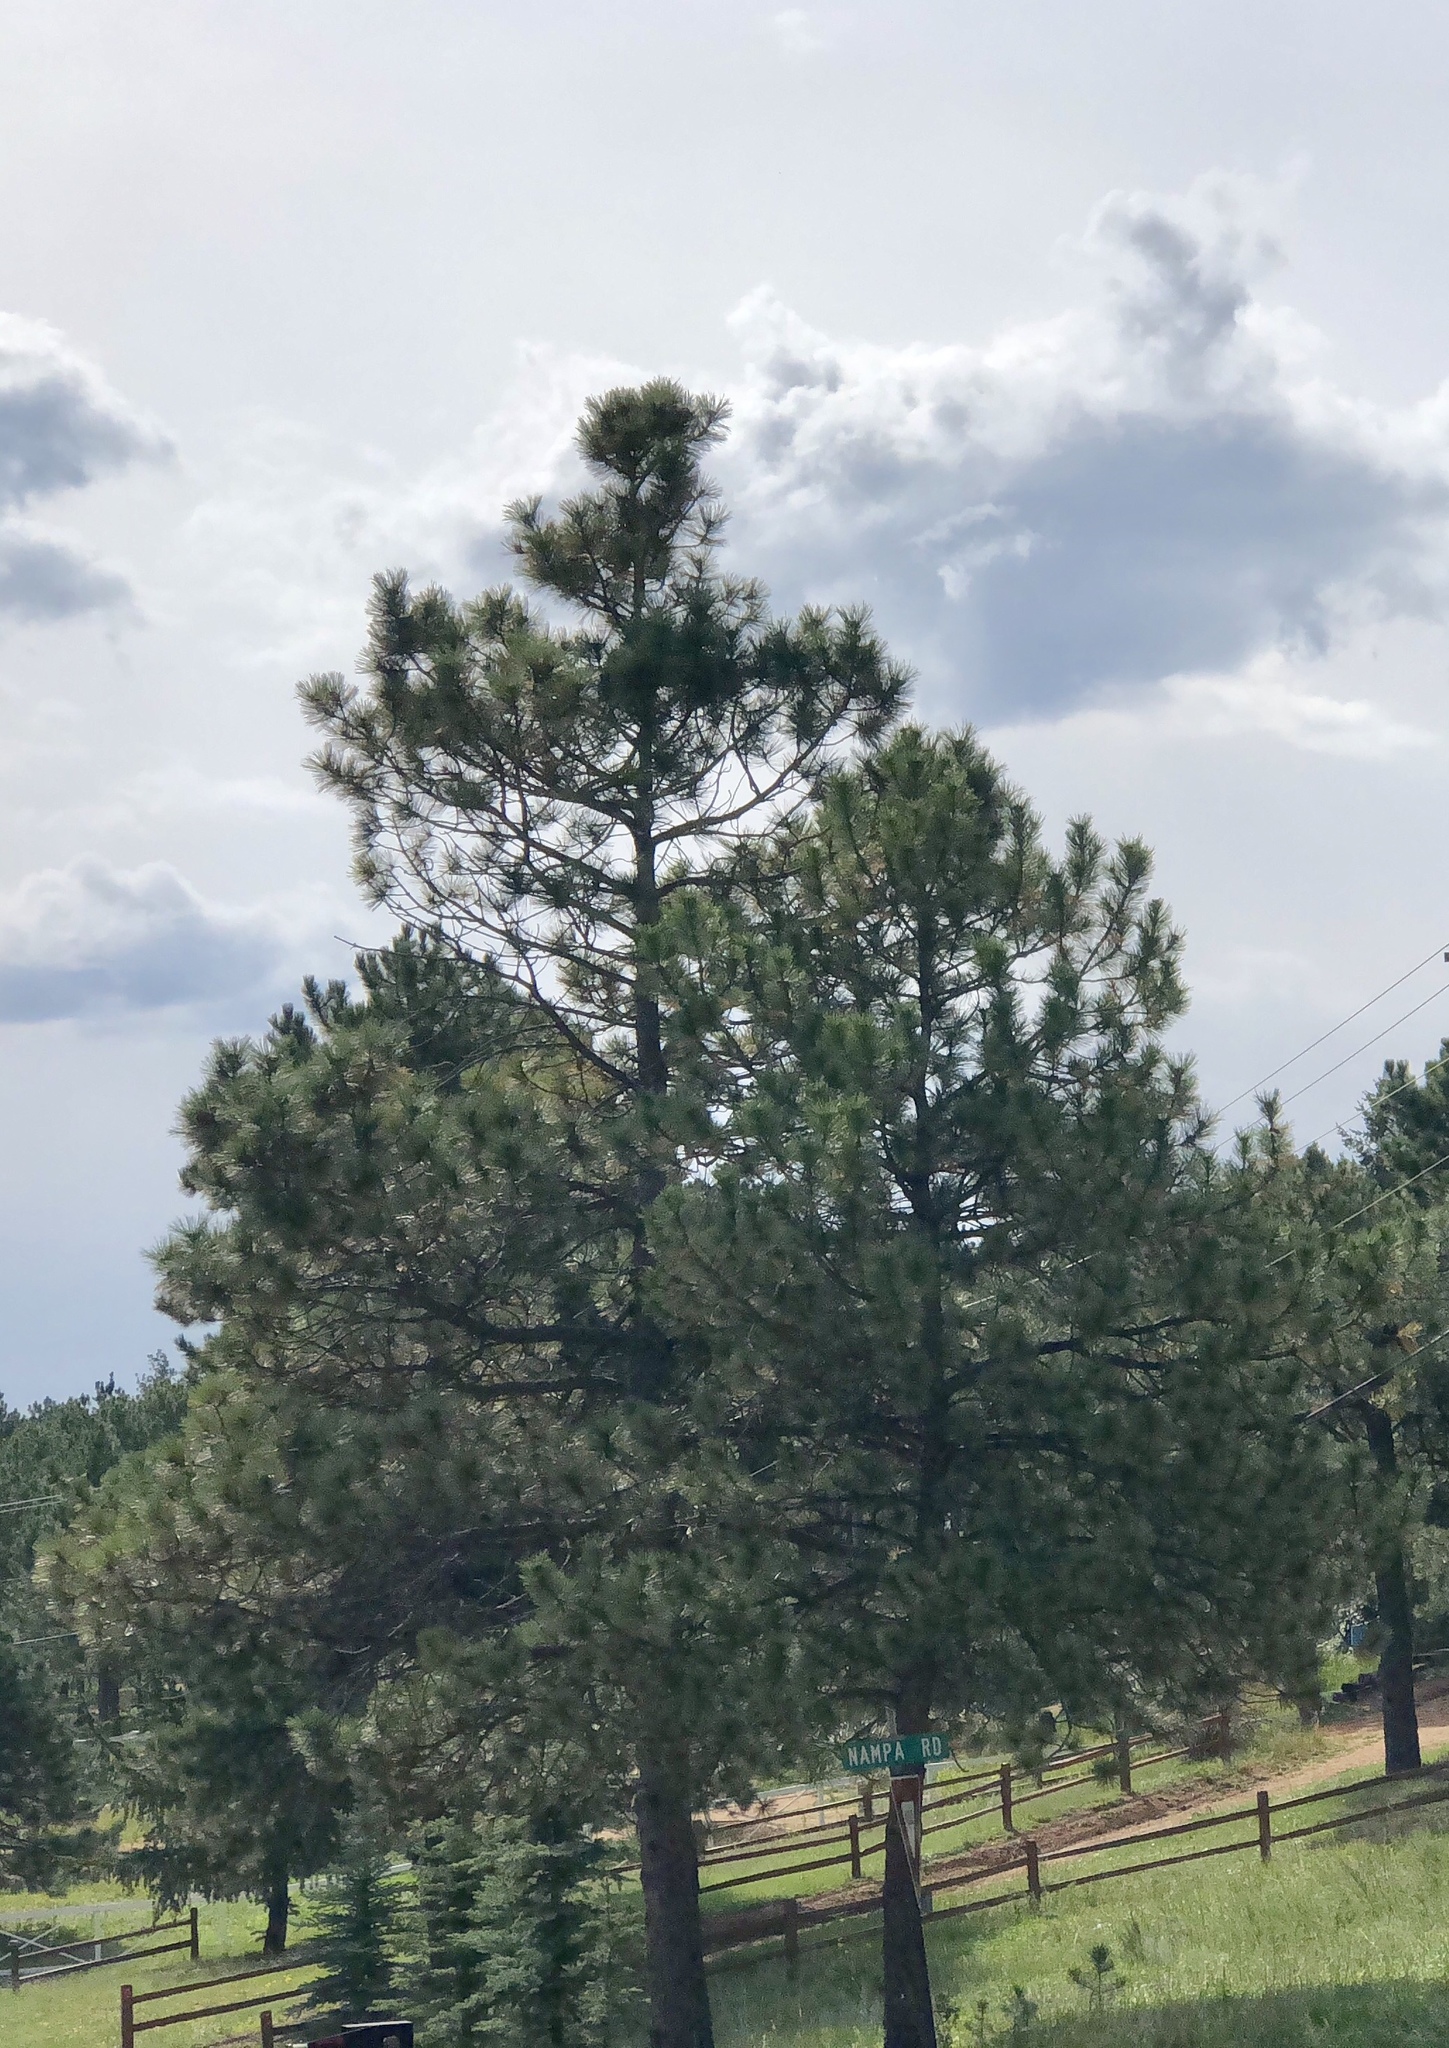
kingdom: Plantae
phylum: Tracheophyta
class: Pinopsida
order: Pinales
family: Pinaceae
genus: Pinus
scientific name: Pinus ponderosa
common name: Western yellow-pine
